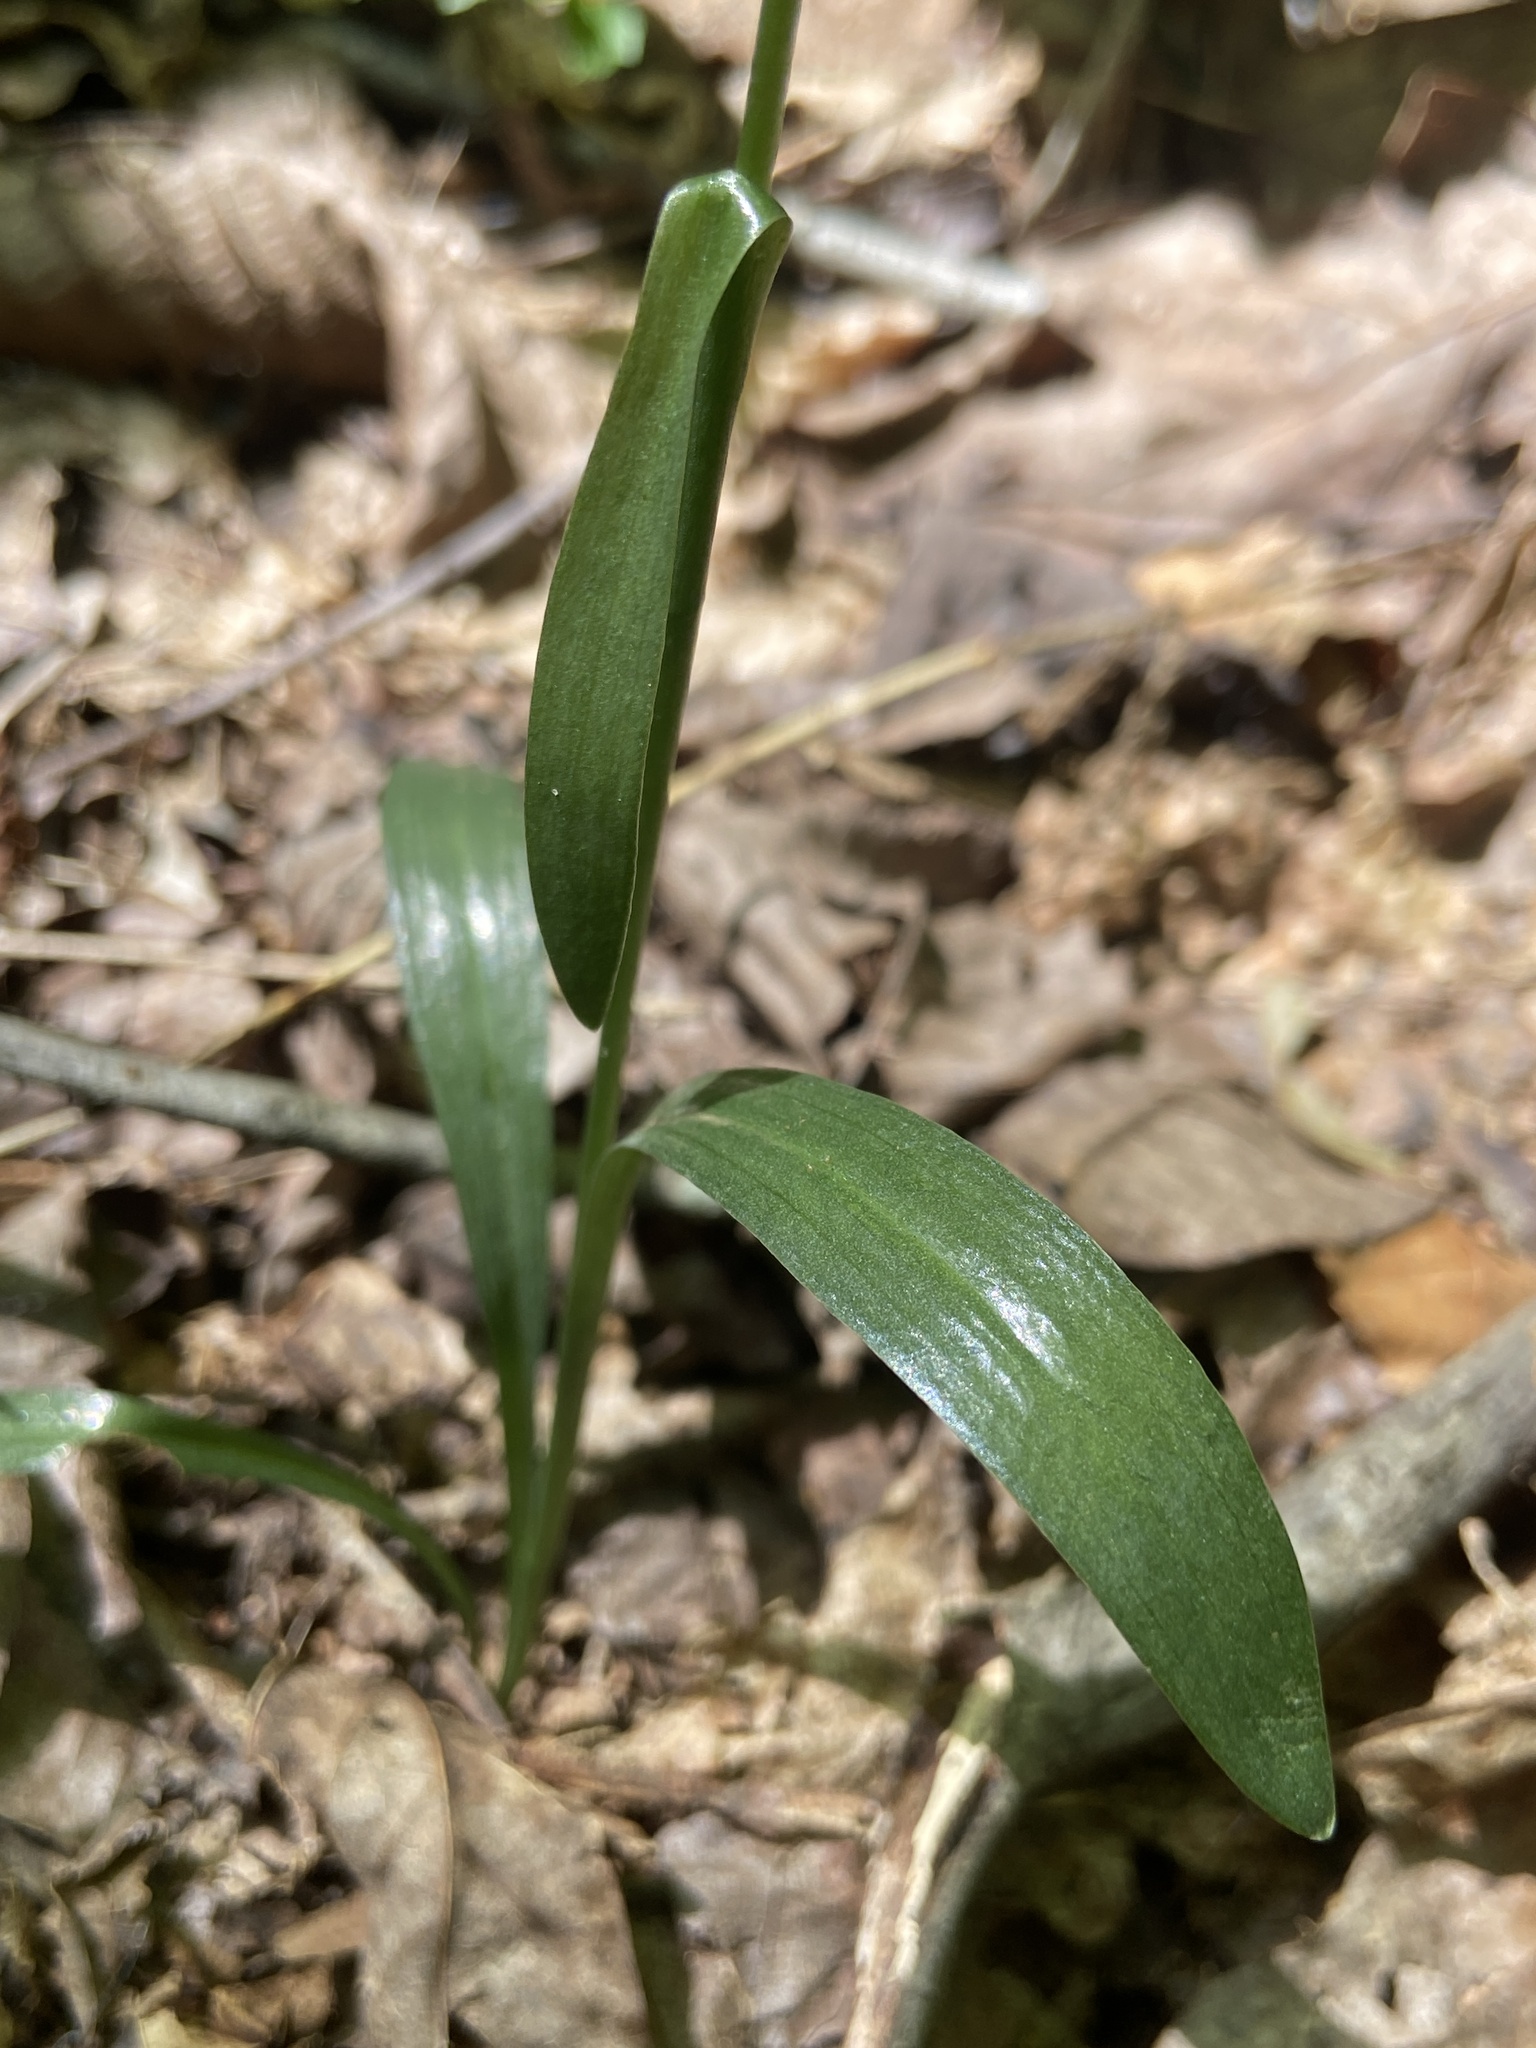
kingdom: Plantae
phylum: Tracheophyta
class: Liliopsida
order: Asparagales
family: Orchidaceae
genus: Spiranthes
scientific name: Spiranthes ovalis
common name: October ladies'-tresses
